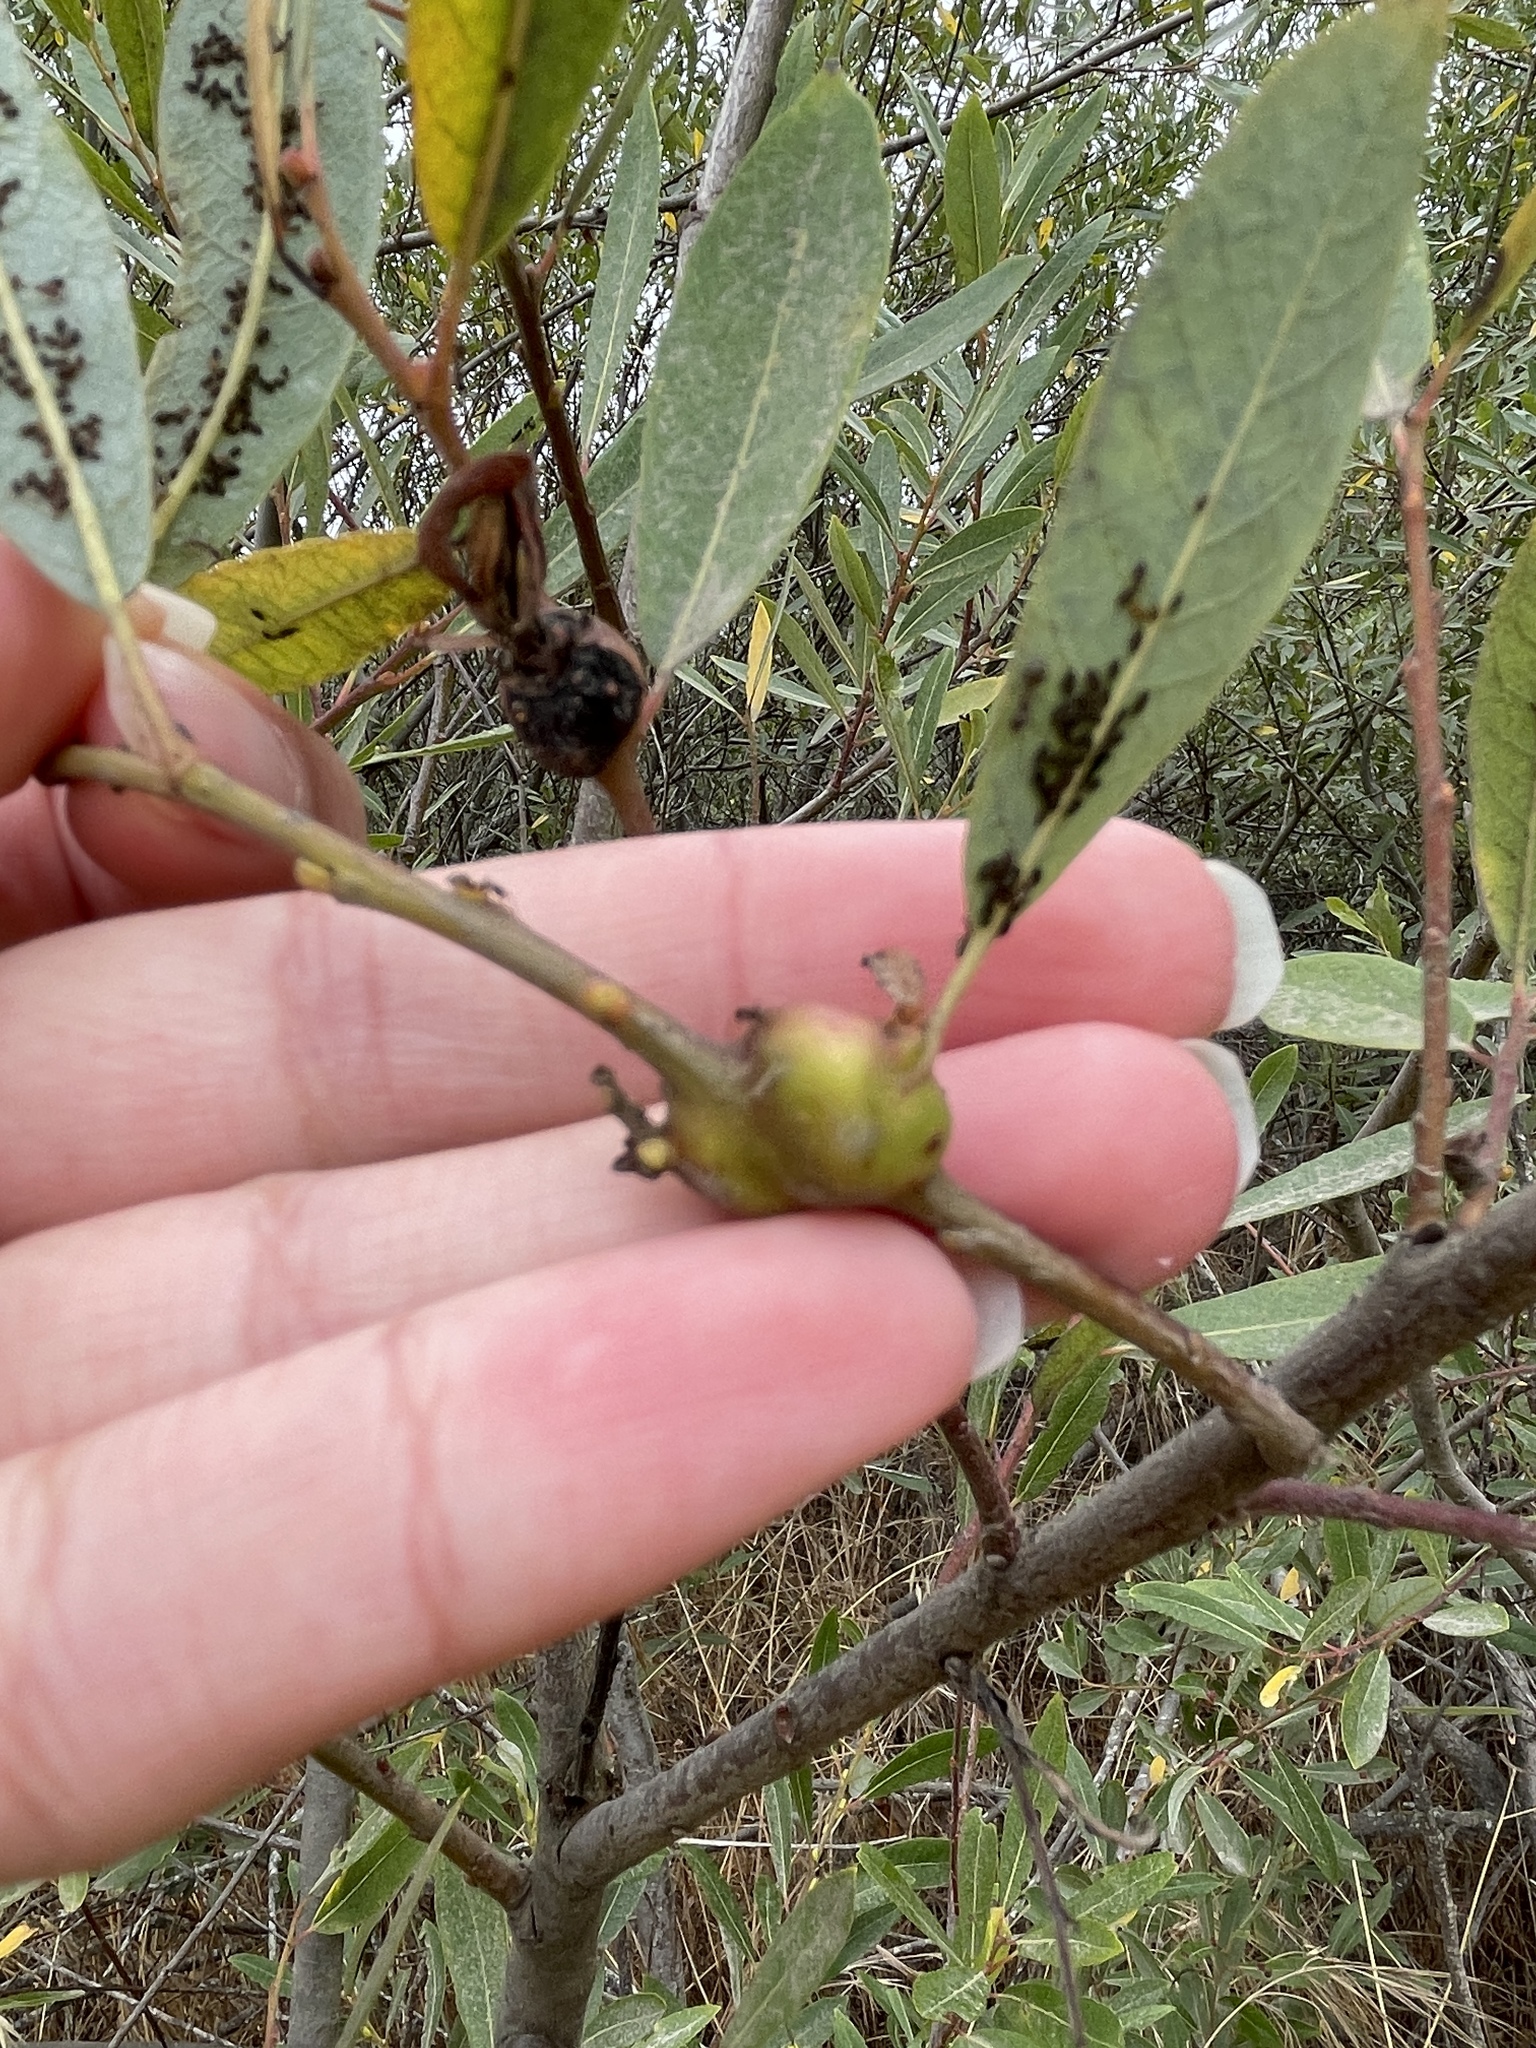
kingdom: Animalia
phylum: Arthropoda
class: Insecta
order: Diptera
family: Cecidomyiidae
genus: Rabdophaga
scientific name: Rabdophaga
